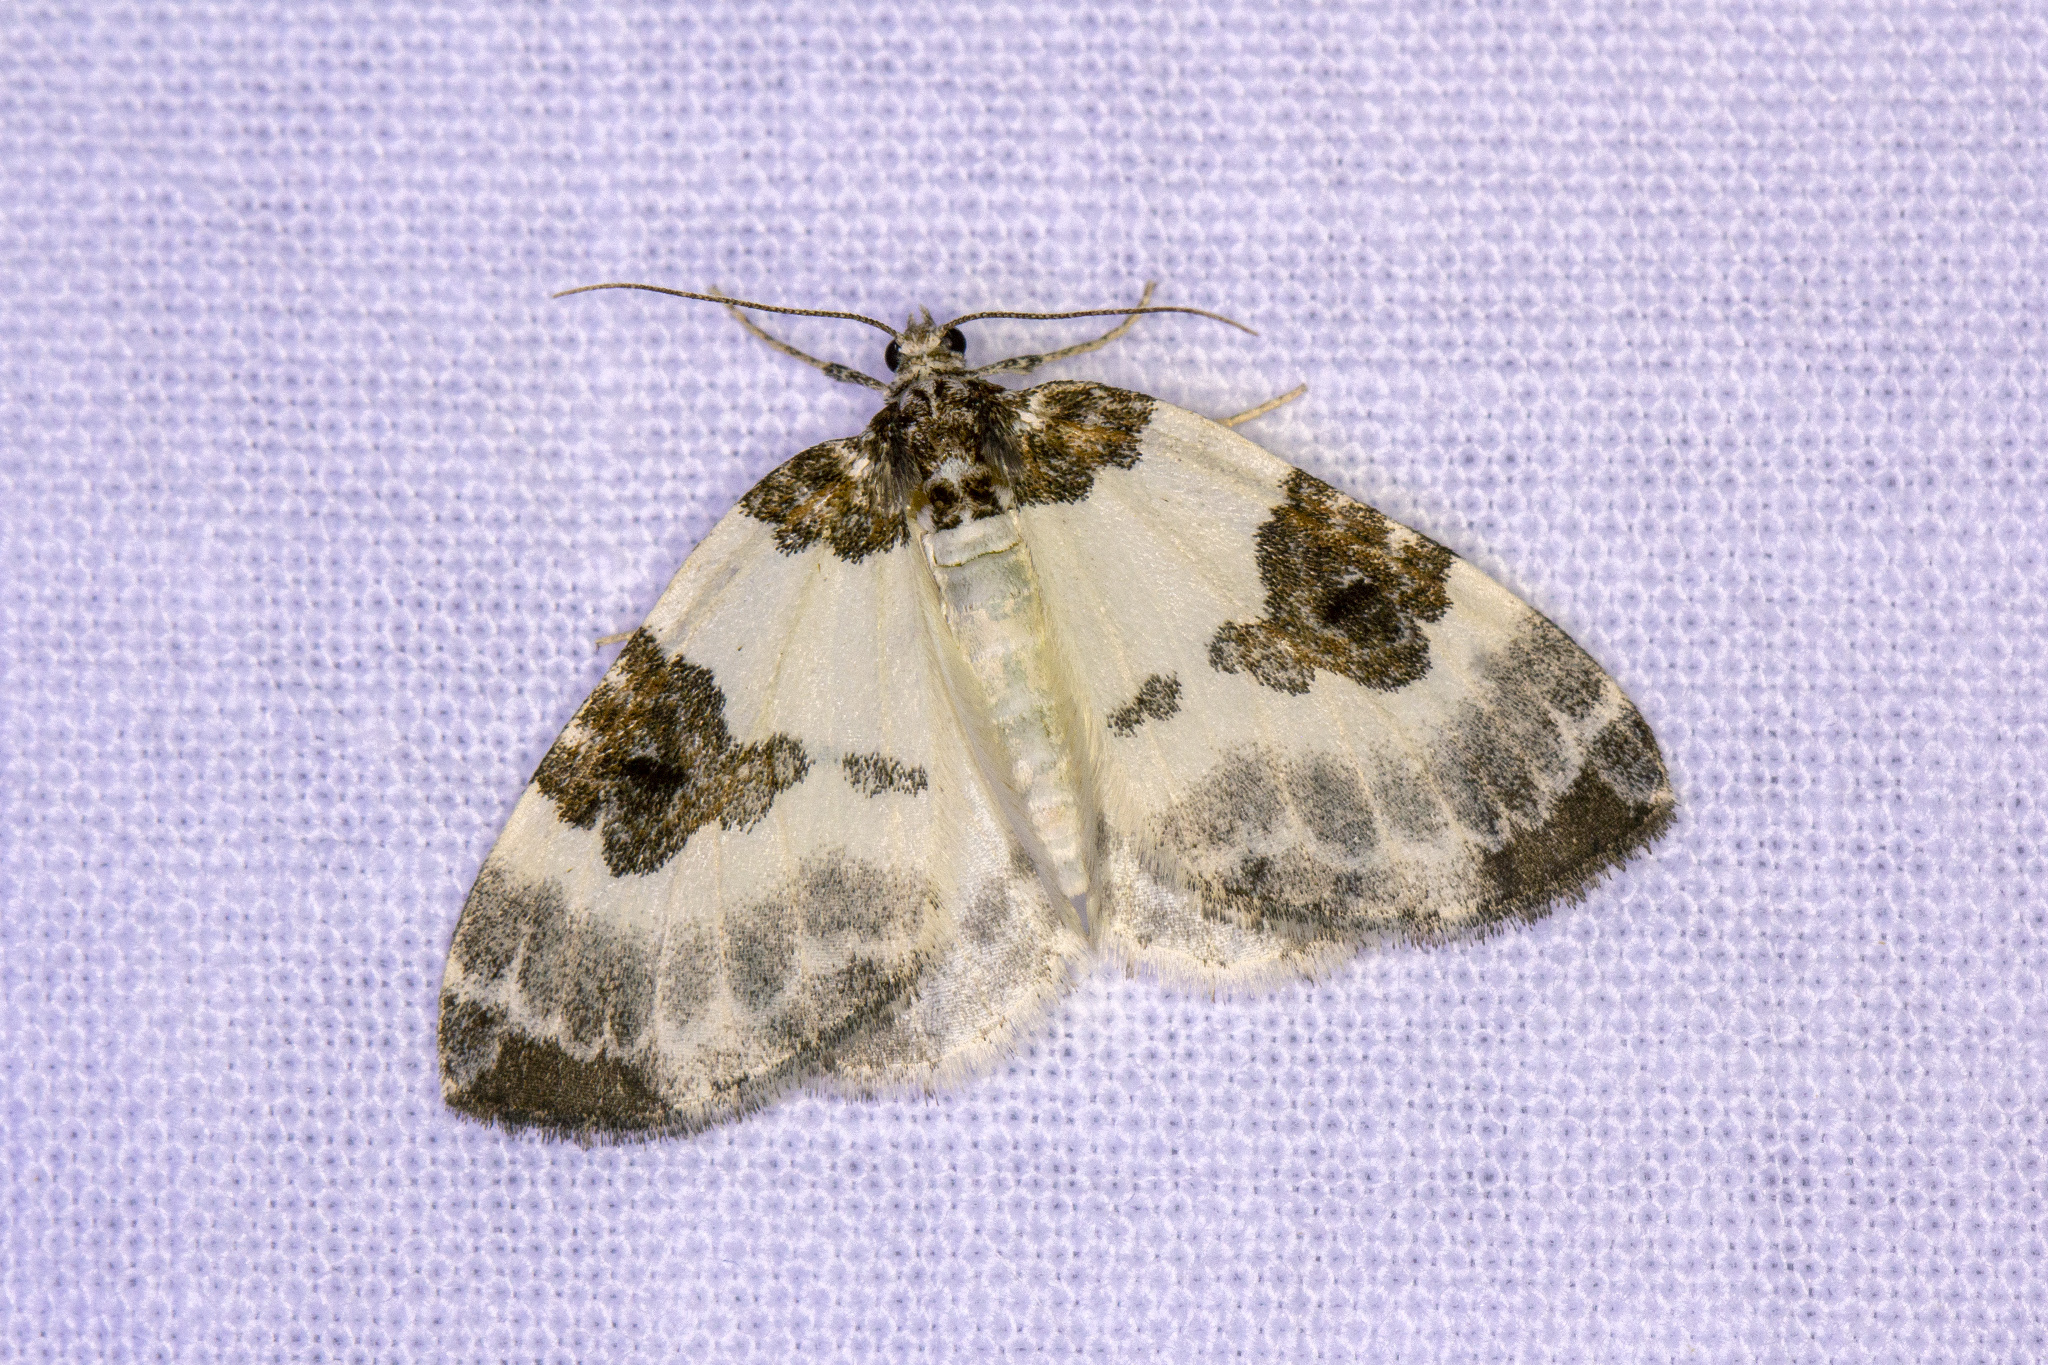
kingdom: Animalia
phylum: Arthropoda
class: Insecta
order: Lepidoptera
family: Geometridae
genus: Plemyria
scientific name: Plemyria rubiginata
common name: Blue-bordered carpet
